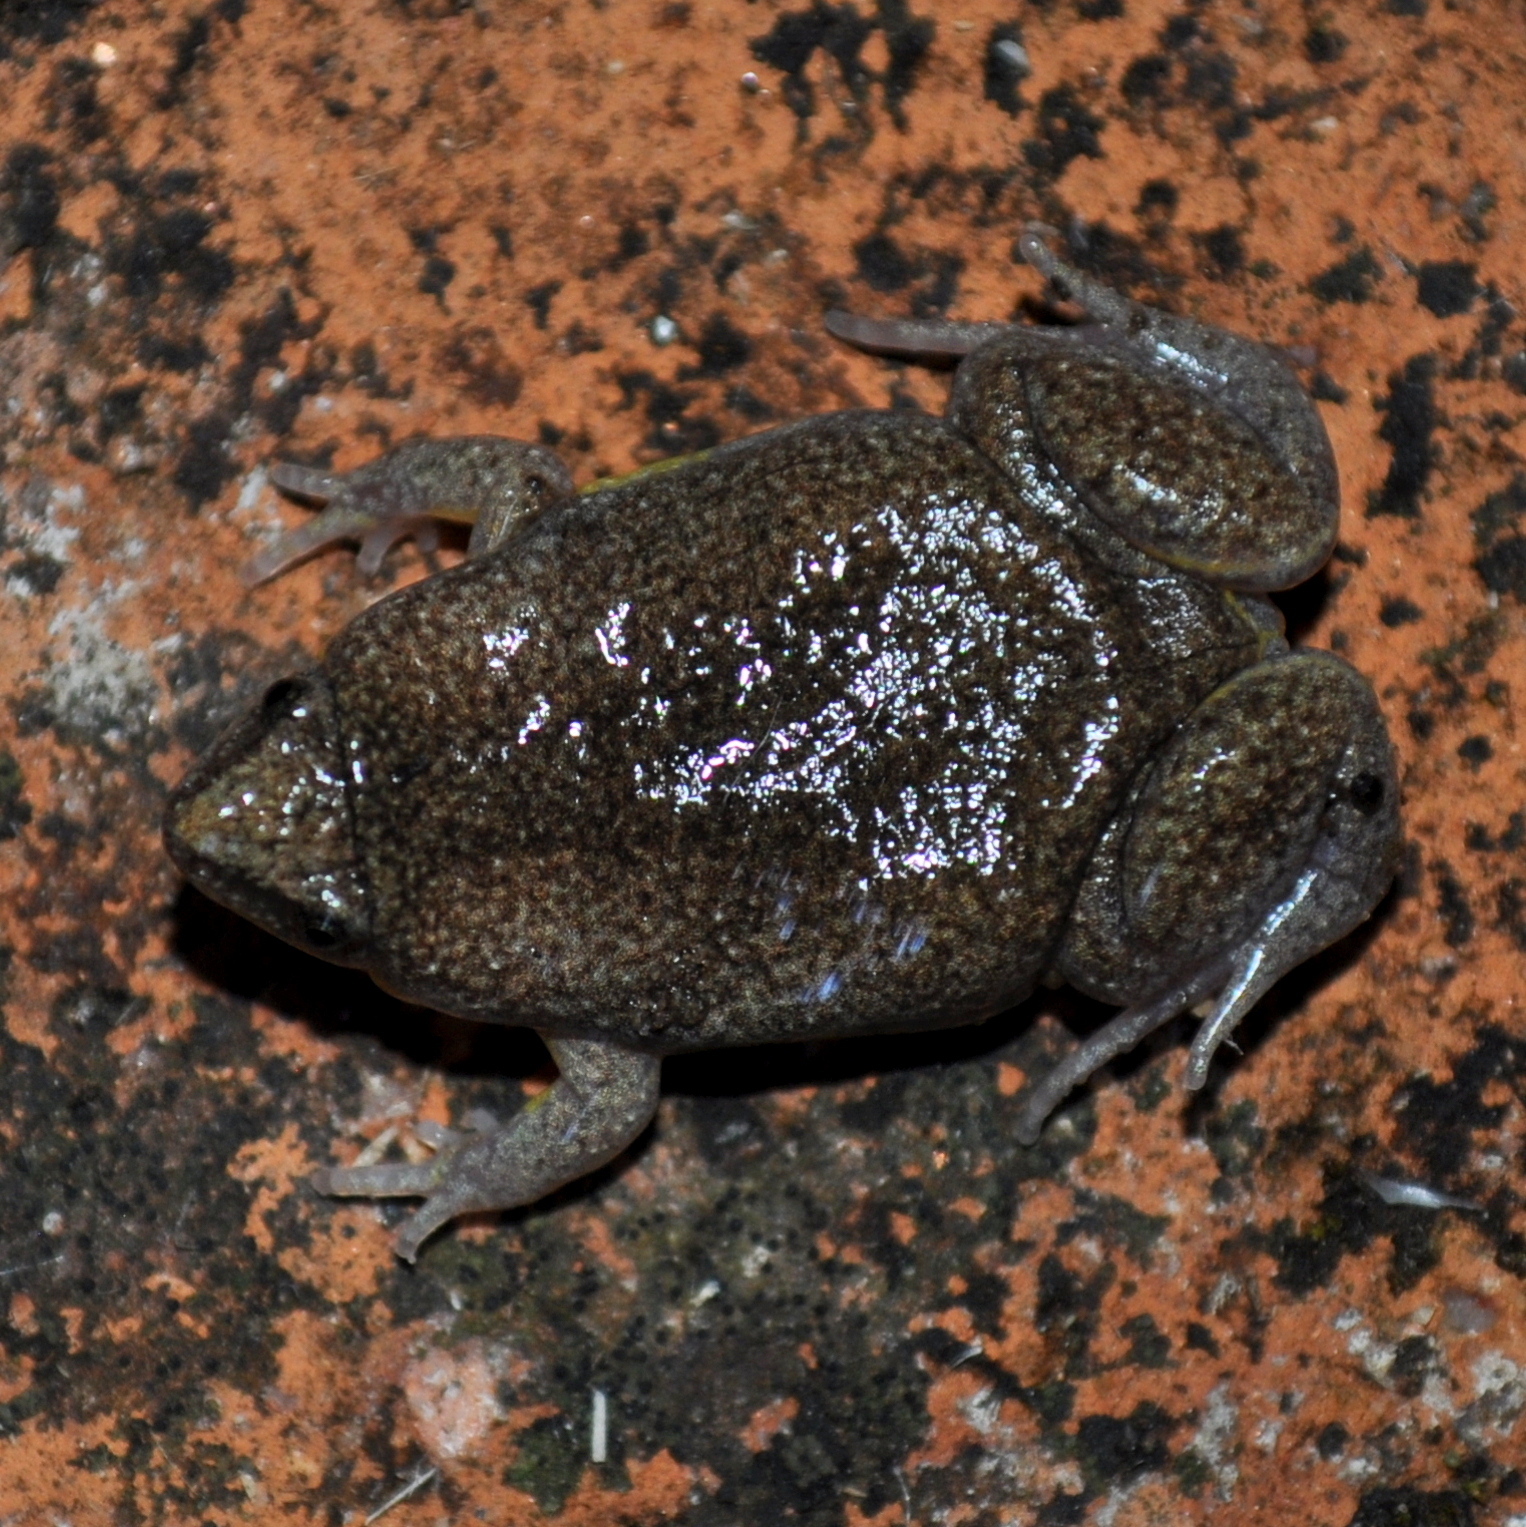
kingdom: Animalia
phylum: Chordata
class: Amphibia
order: Anura
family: Microhylidae
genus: Elachistocleis
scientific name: Elachistocleis bicolor
